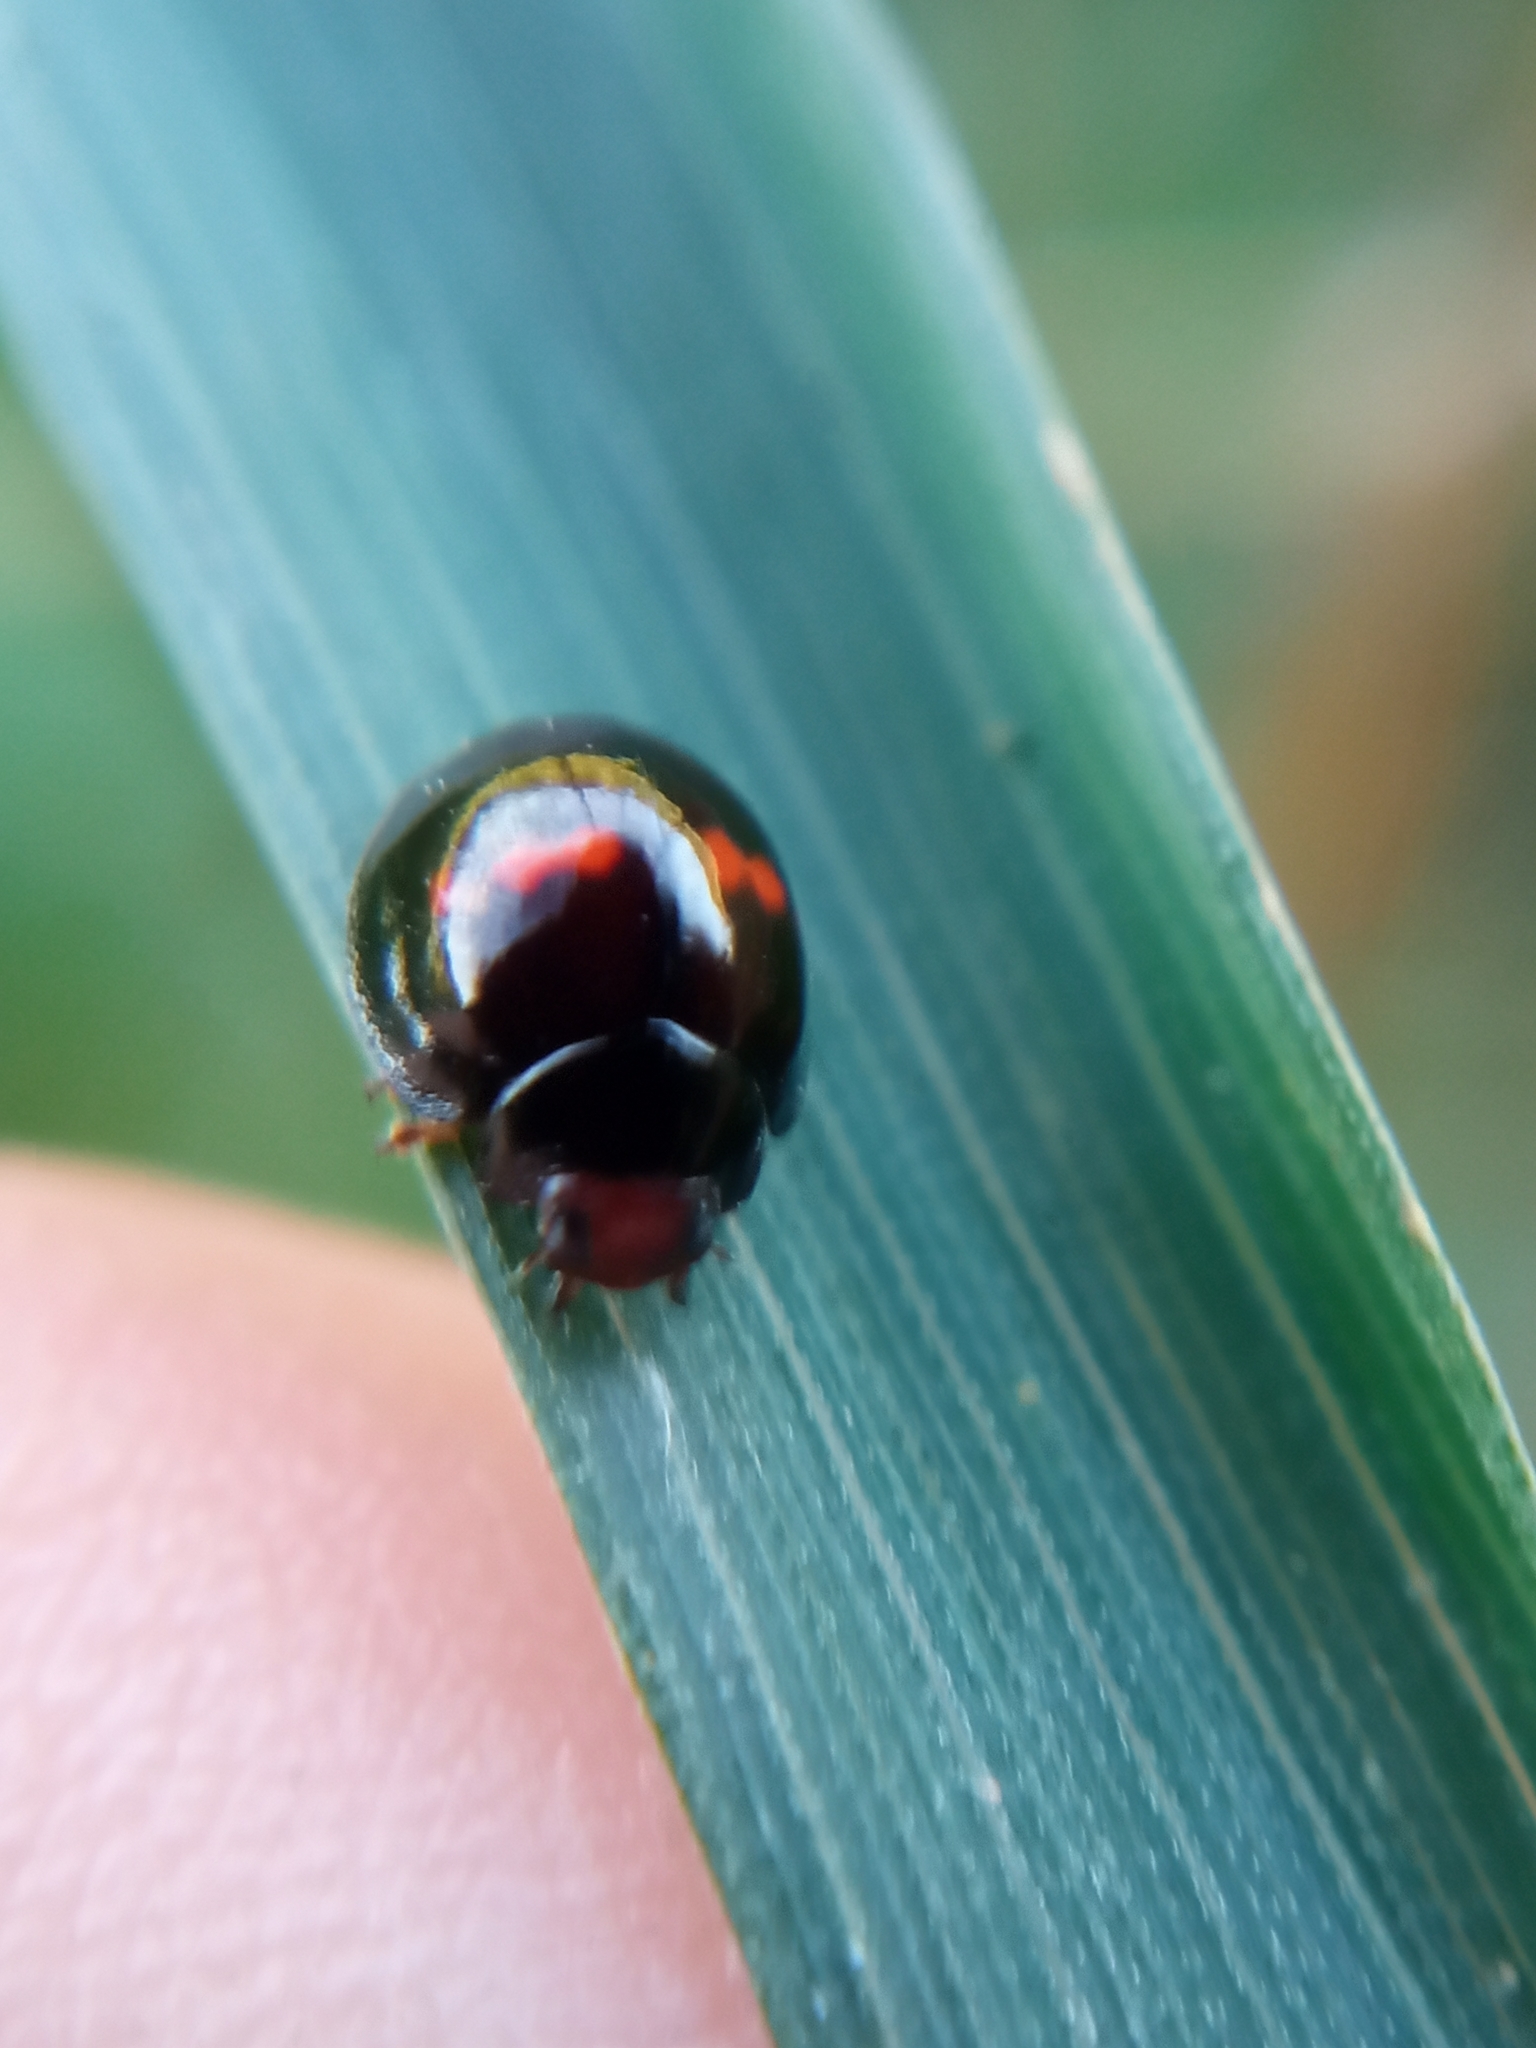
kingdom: Animalia
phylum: Arthropoda
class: Insecta
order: Coleoptera
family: Coccinellidae
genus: Chilocorus
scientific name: Chilocorus bipustulatus
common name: Heather ladybird
